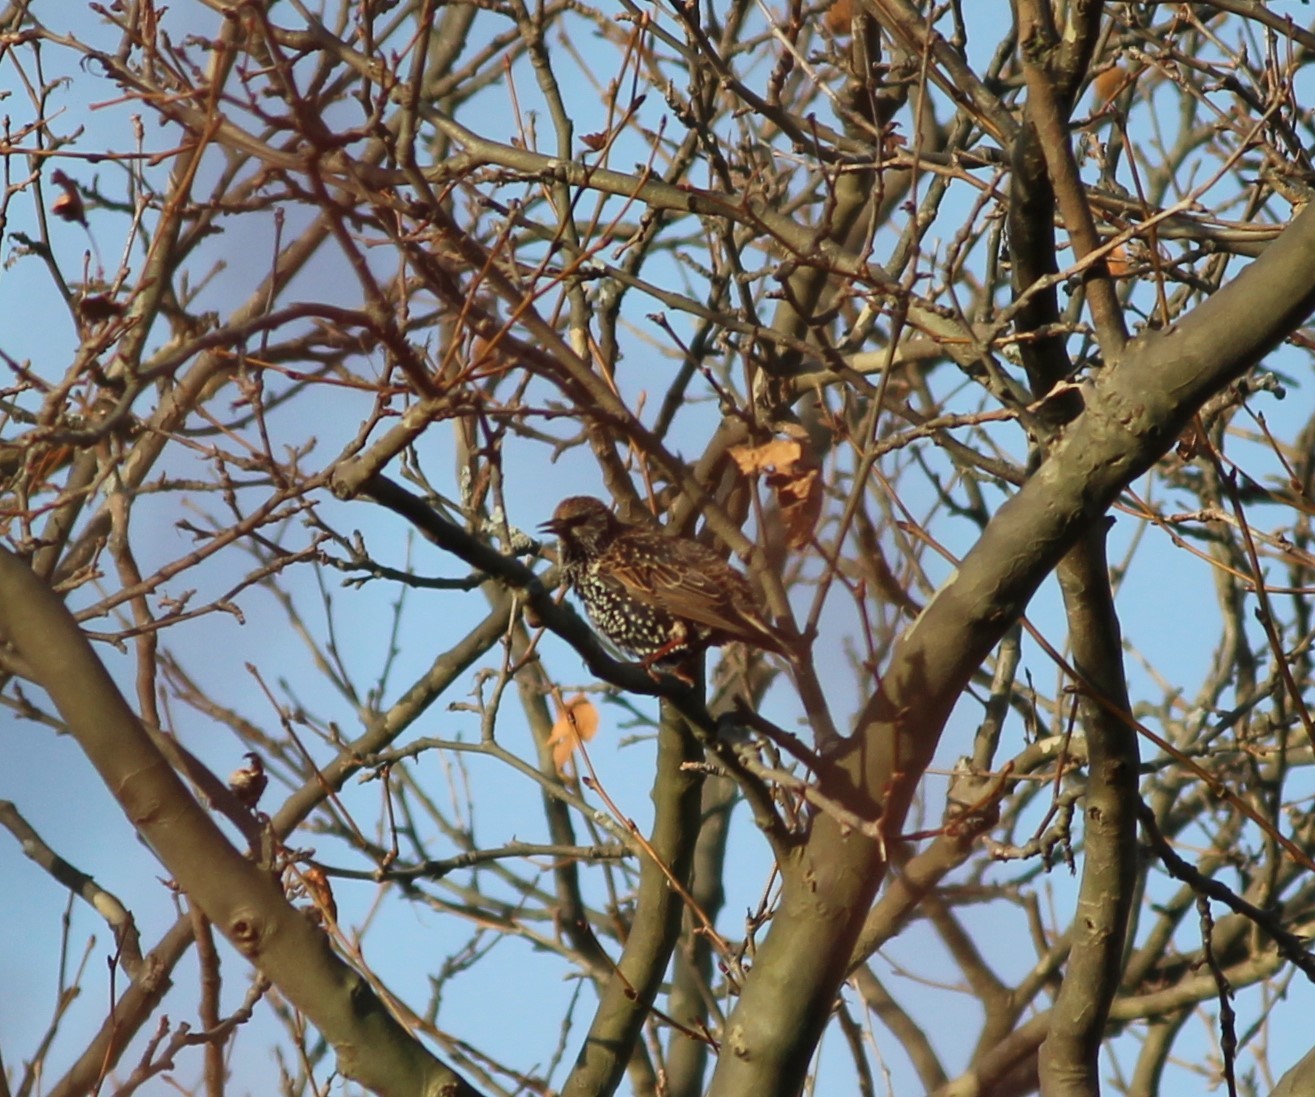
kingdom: Animalia
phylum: Chordata
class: Aves
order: Passeriformes
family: Sturnidae
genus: Sturnus
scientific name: Sturnus vulgaris
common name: Common starling
